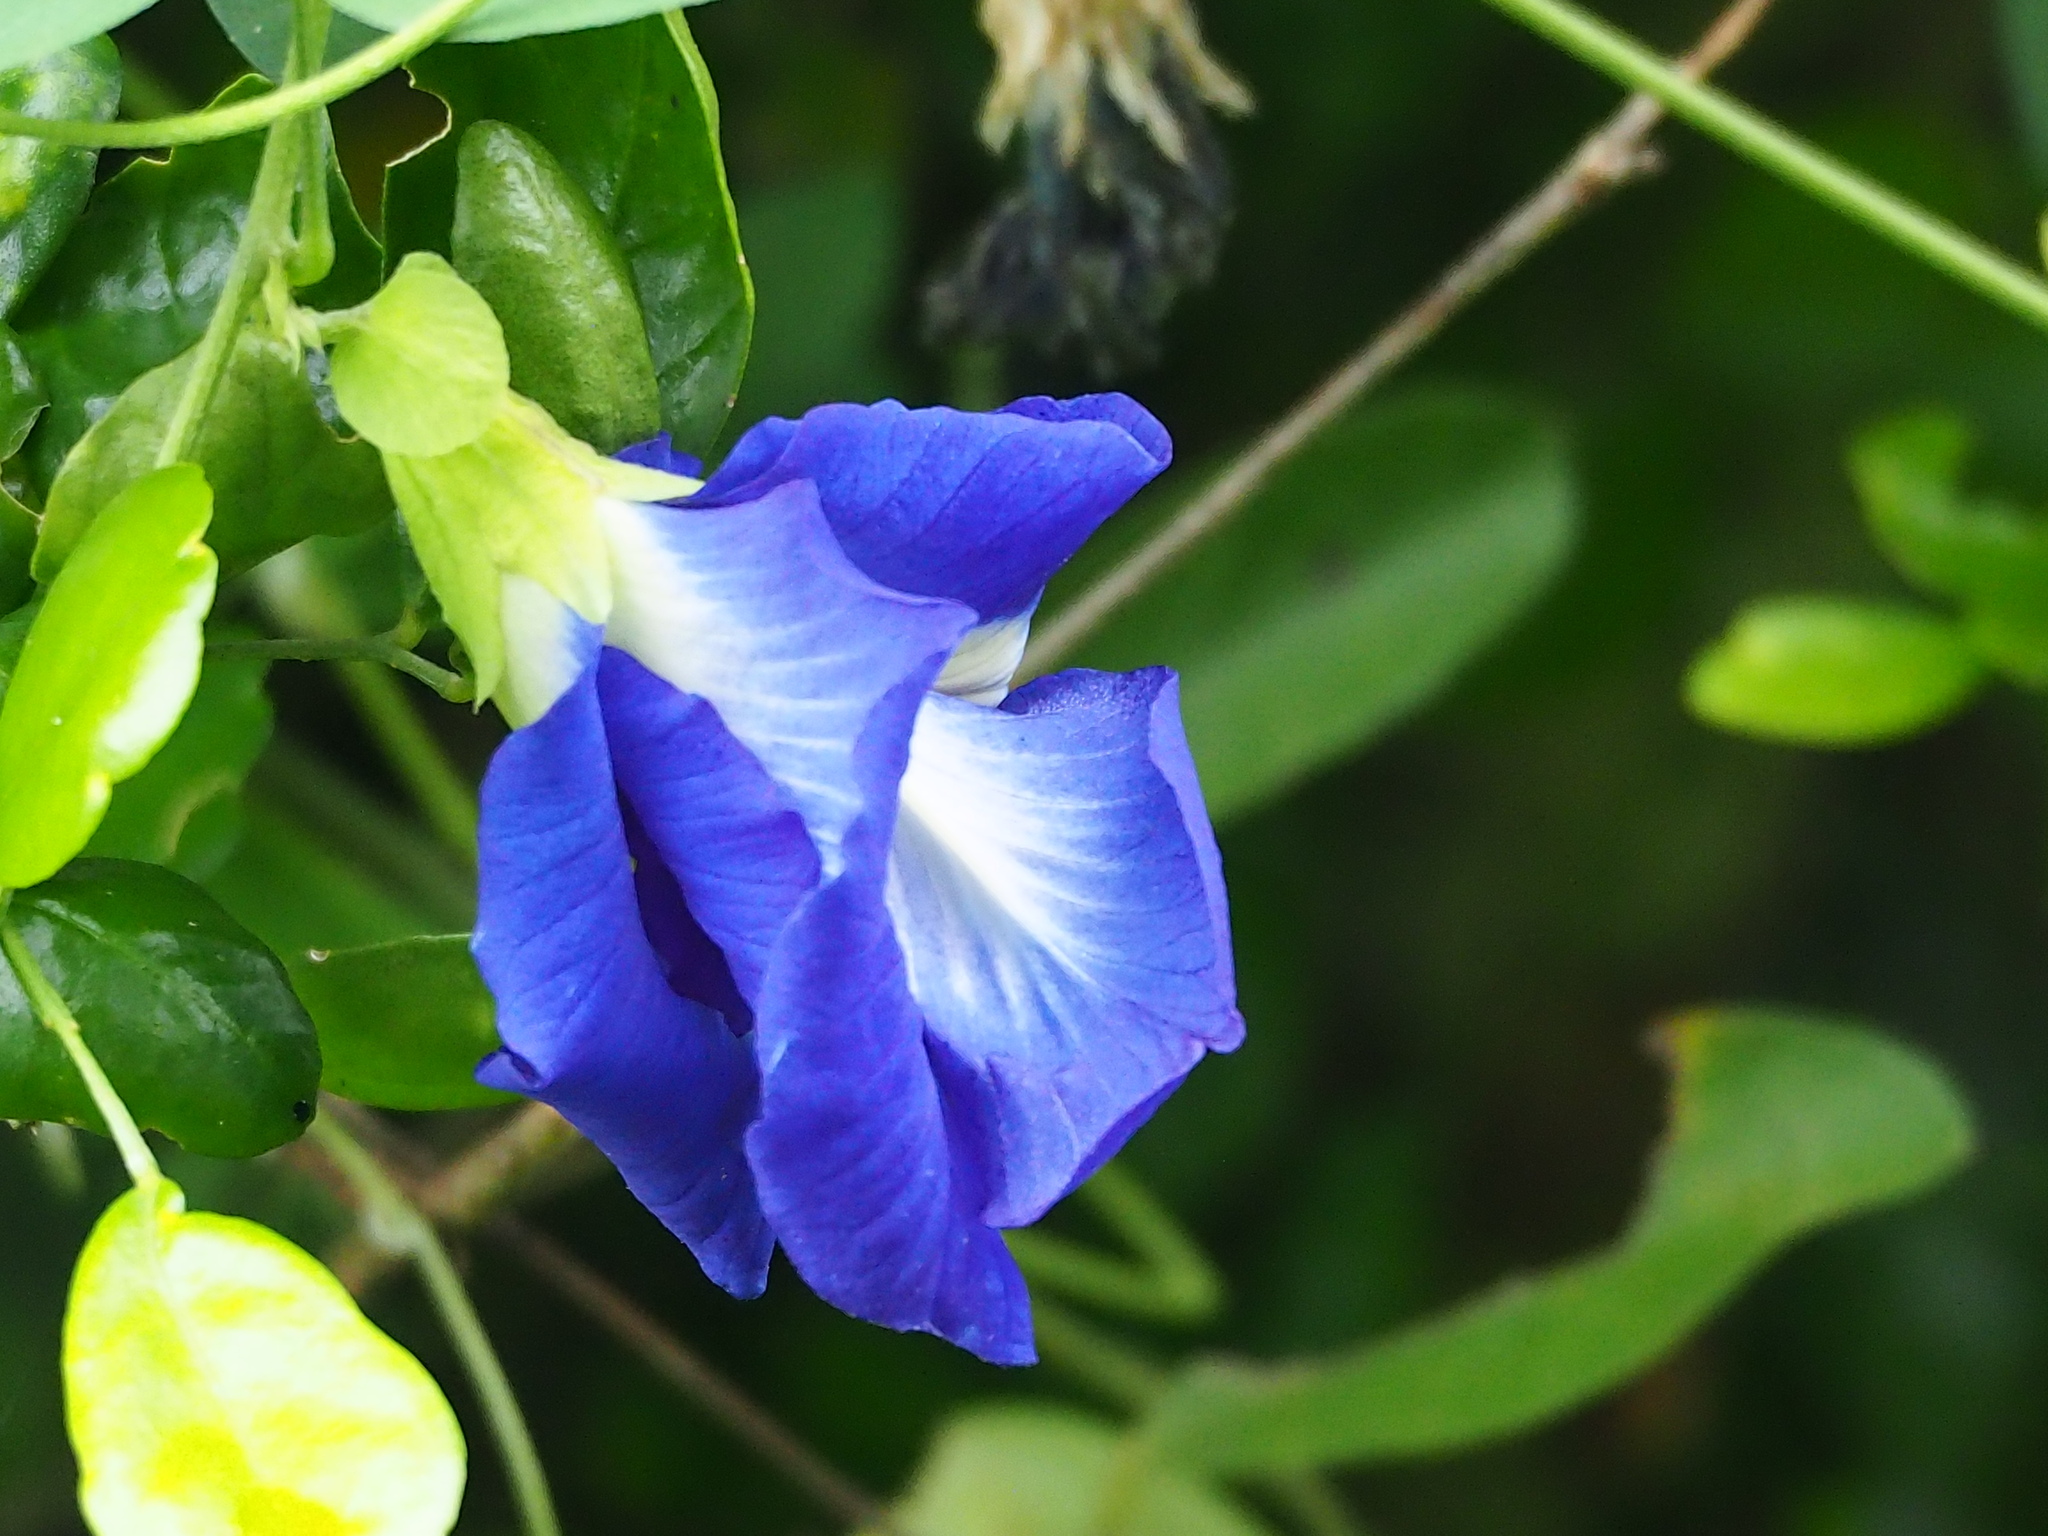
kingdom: Plantae
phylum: Tracheophyta
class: Magnoliopsida
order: Fabales
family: Fabaceae
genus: Clitoria
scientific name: Clitoria ternatea
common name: Asian pigeonwings
